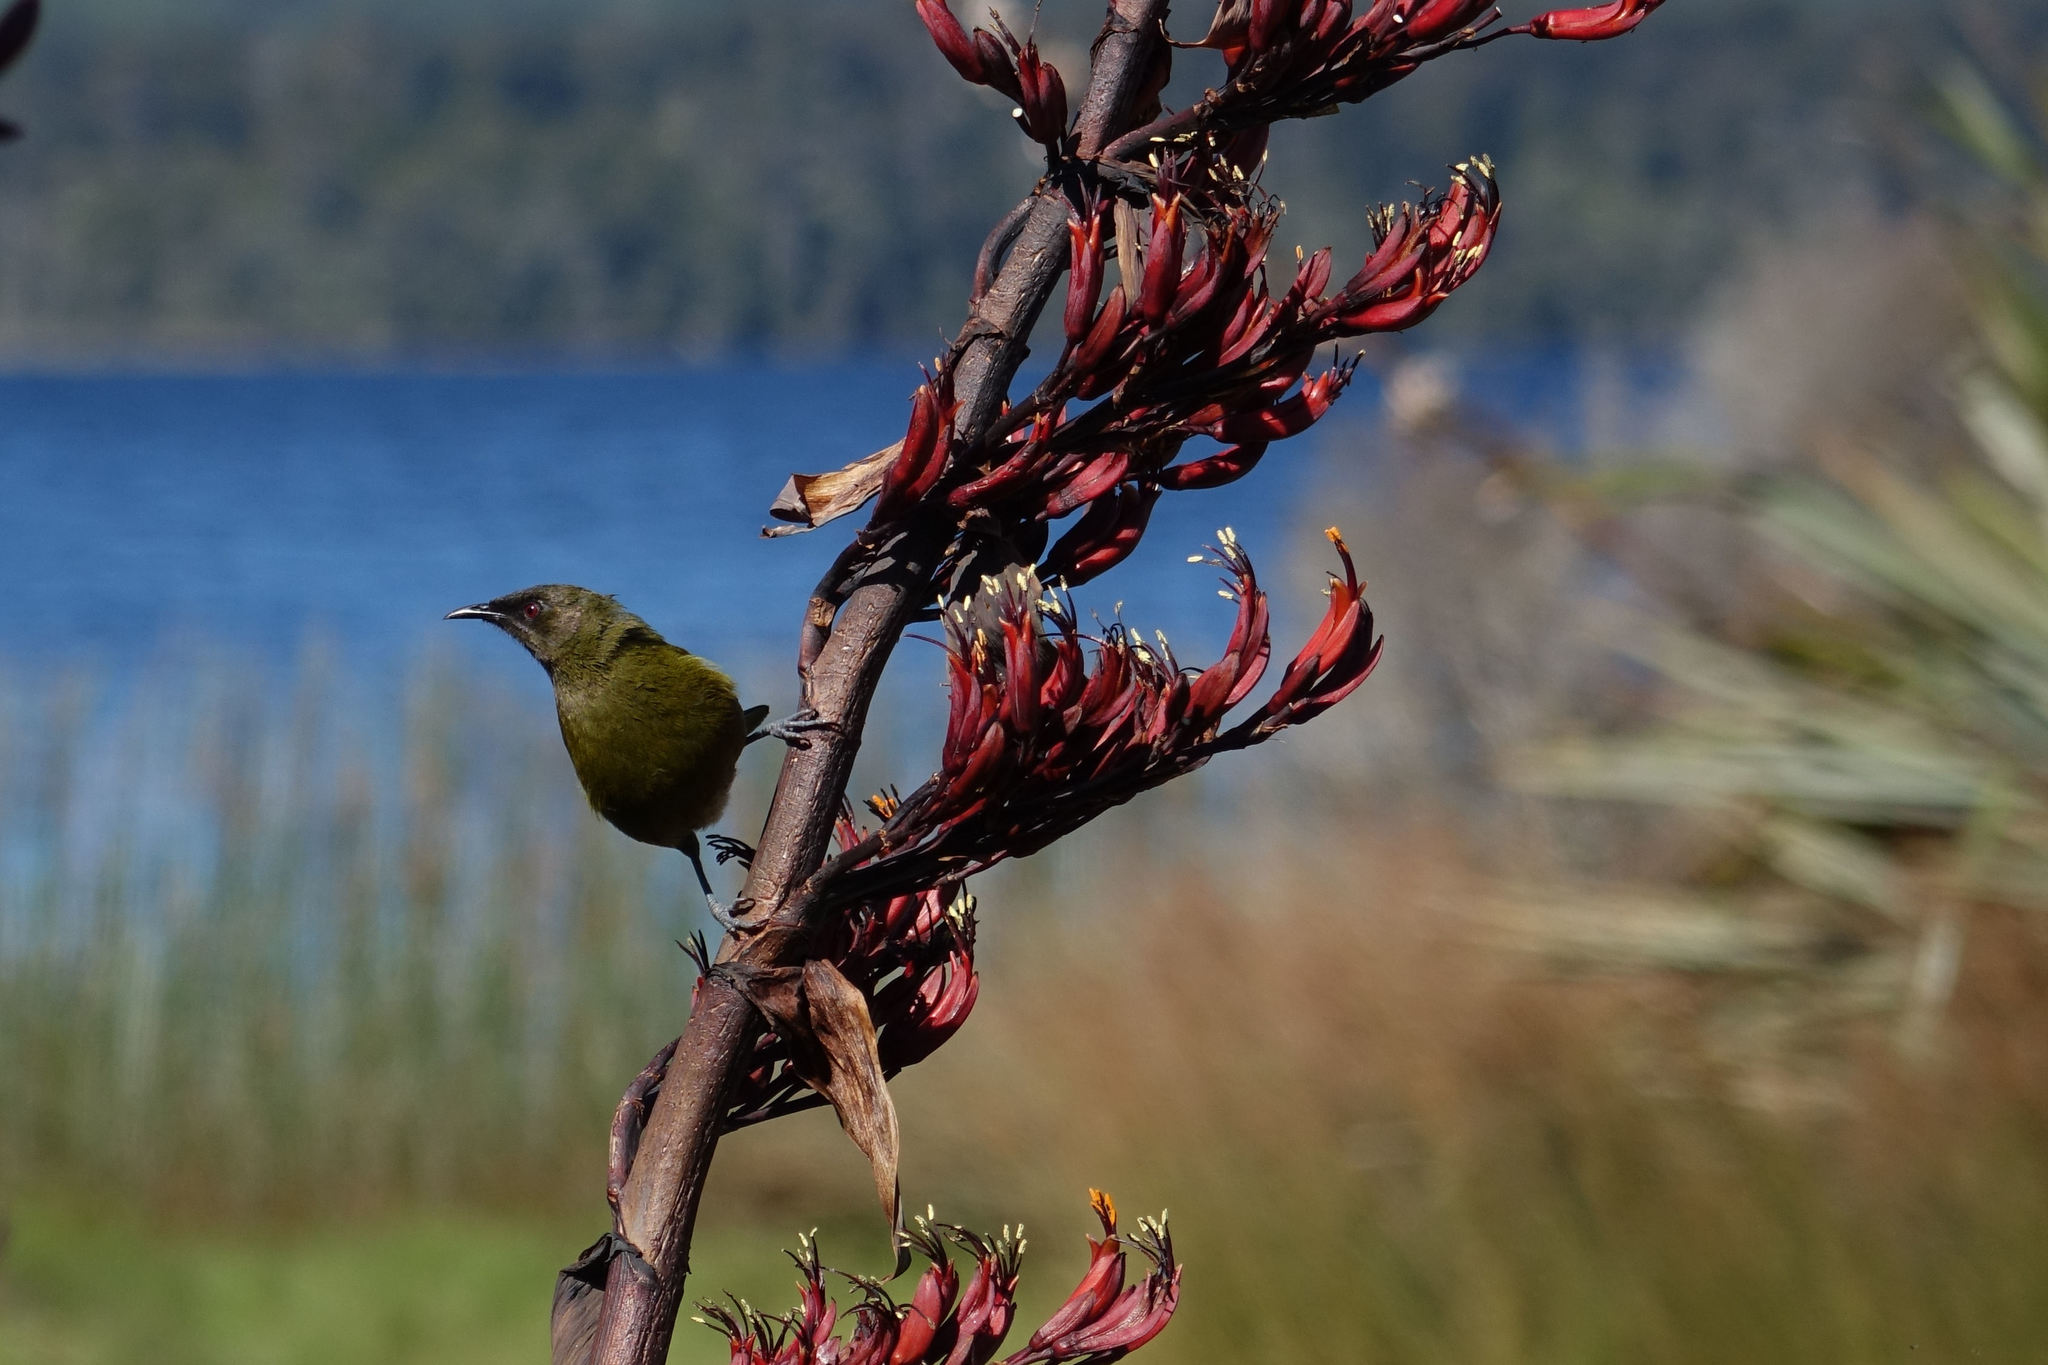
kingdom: Animalia
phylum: Chordata
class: Aves
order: Passeriformes
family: Meliphagidae
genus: Anthornis
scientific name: Anthornis melanura
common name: New zealand bellbird
